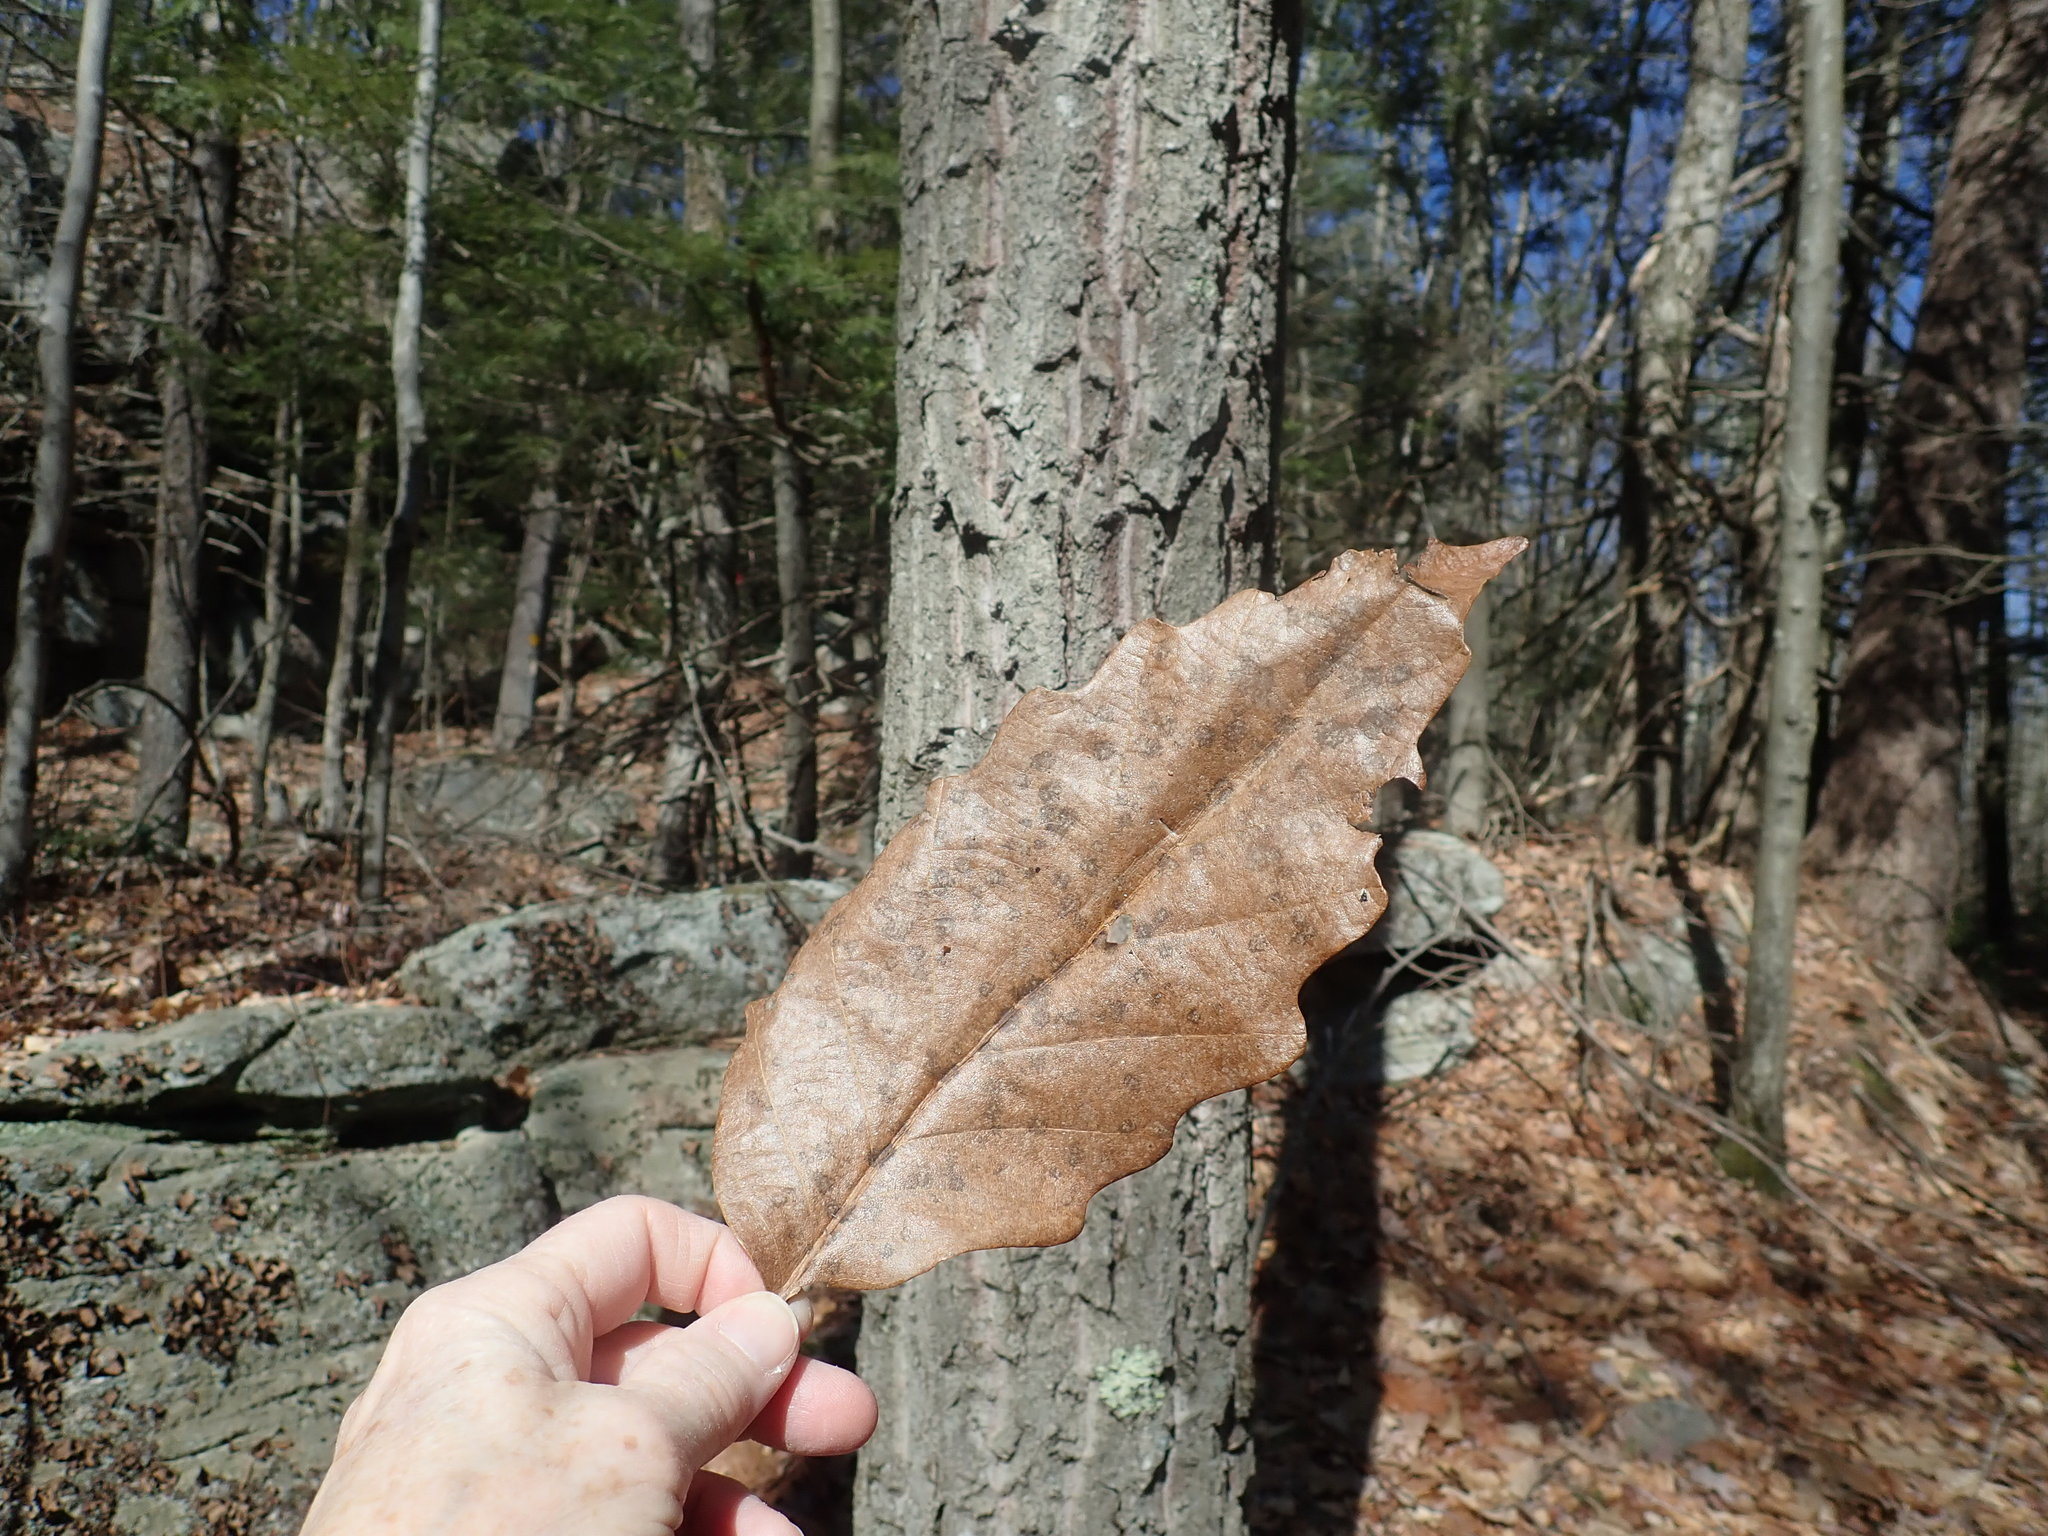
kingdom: Plantae
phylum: Tracheophyta
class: Magnoliopsida
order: Fagales
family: Fagaceae
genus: Quercus
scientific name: Quercus montana
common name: Chestnut oak
